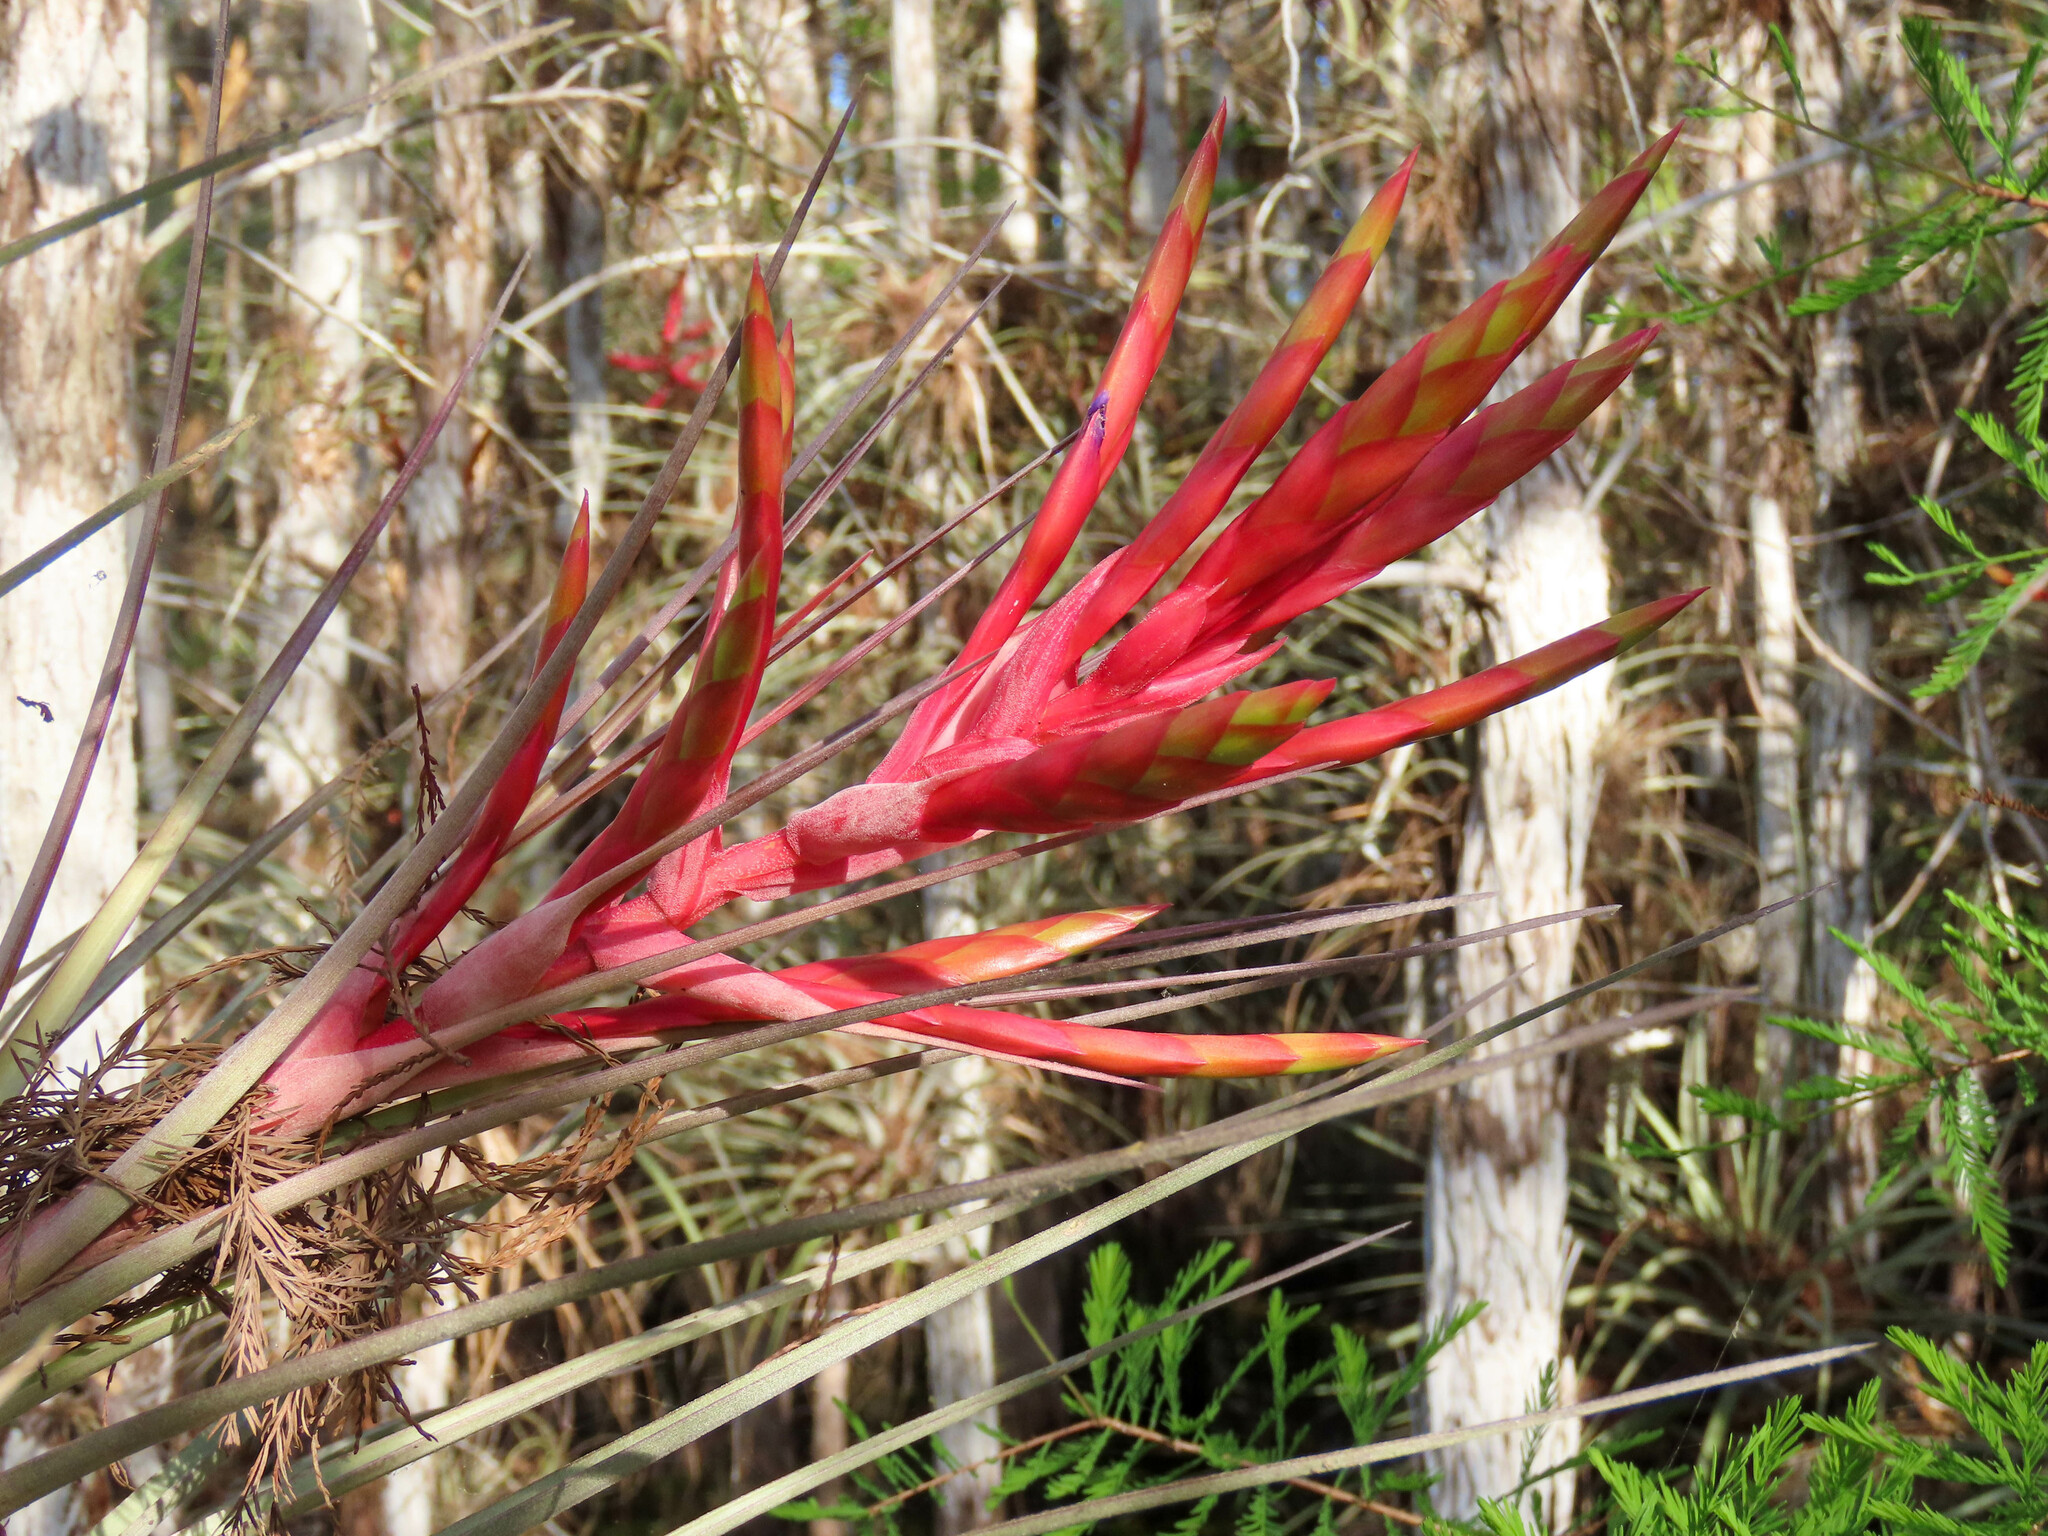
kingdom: Plantae
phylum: Tracheophyta
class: Liliopsida
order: Poales
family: Bromeliaceae
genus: Tillandsia
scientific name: Tillandsia fasciculata
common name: Giant airplant
